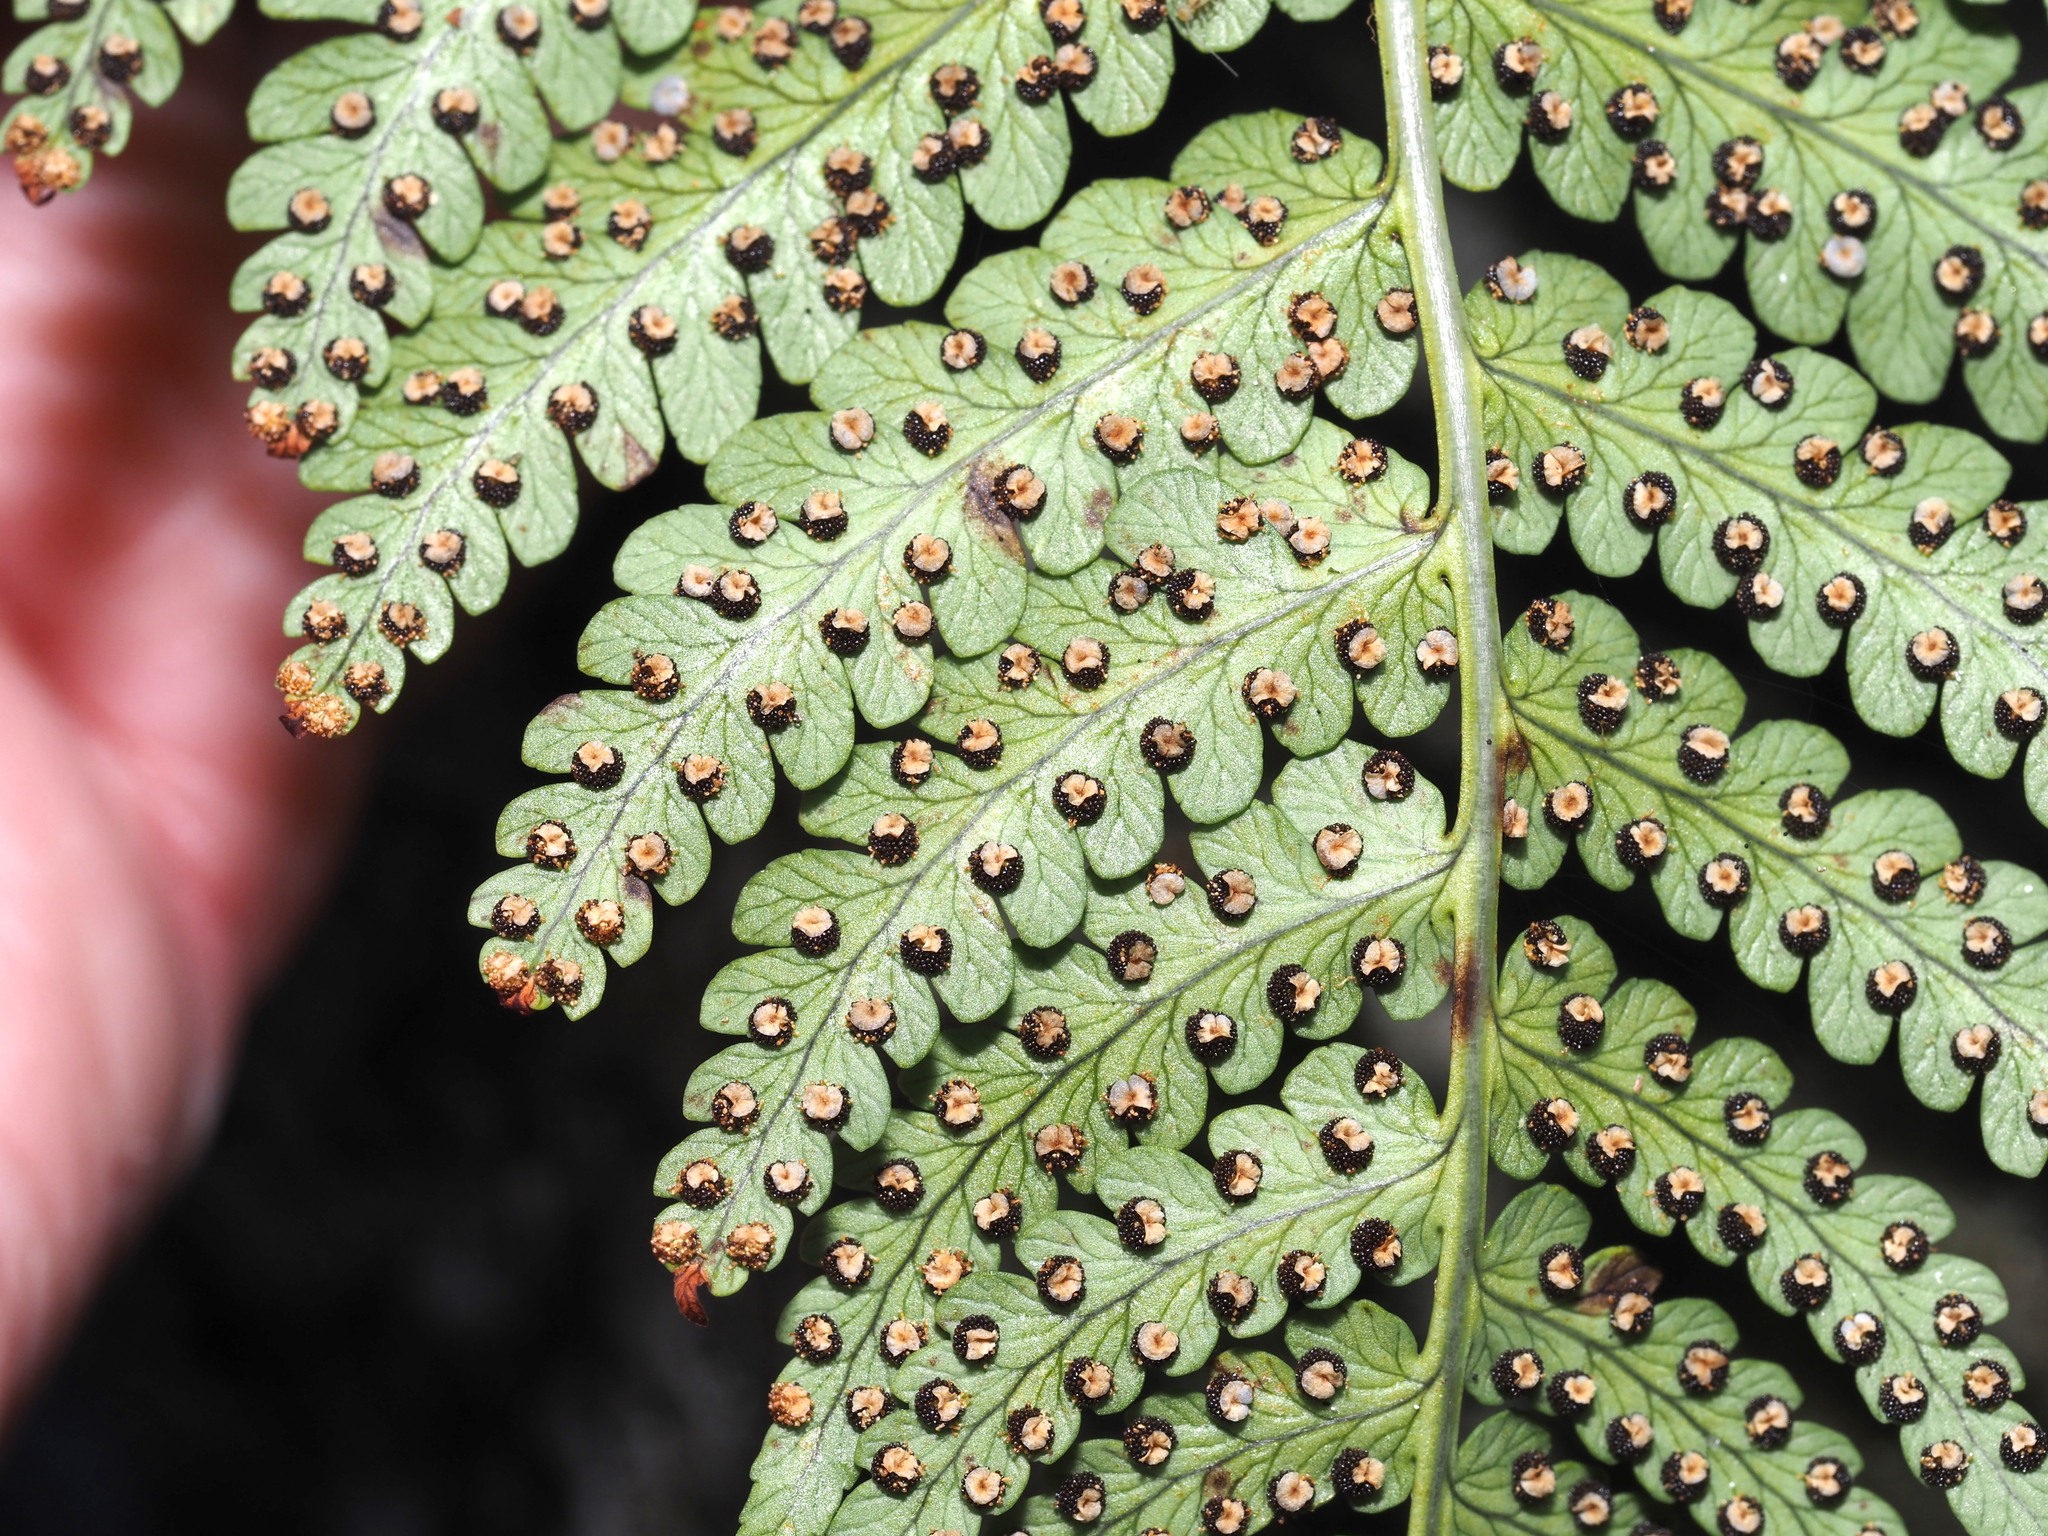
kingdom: Plantae
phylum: Tracheophyta
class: Polypodiopsida
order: Polypodiales
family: Dryopteridaceae
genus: Dryopteris
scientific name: Dryopteris marginalis
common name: Marginal wood fern
